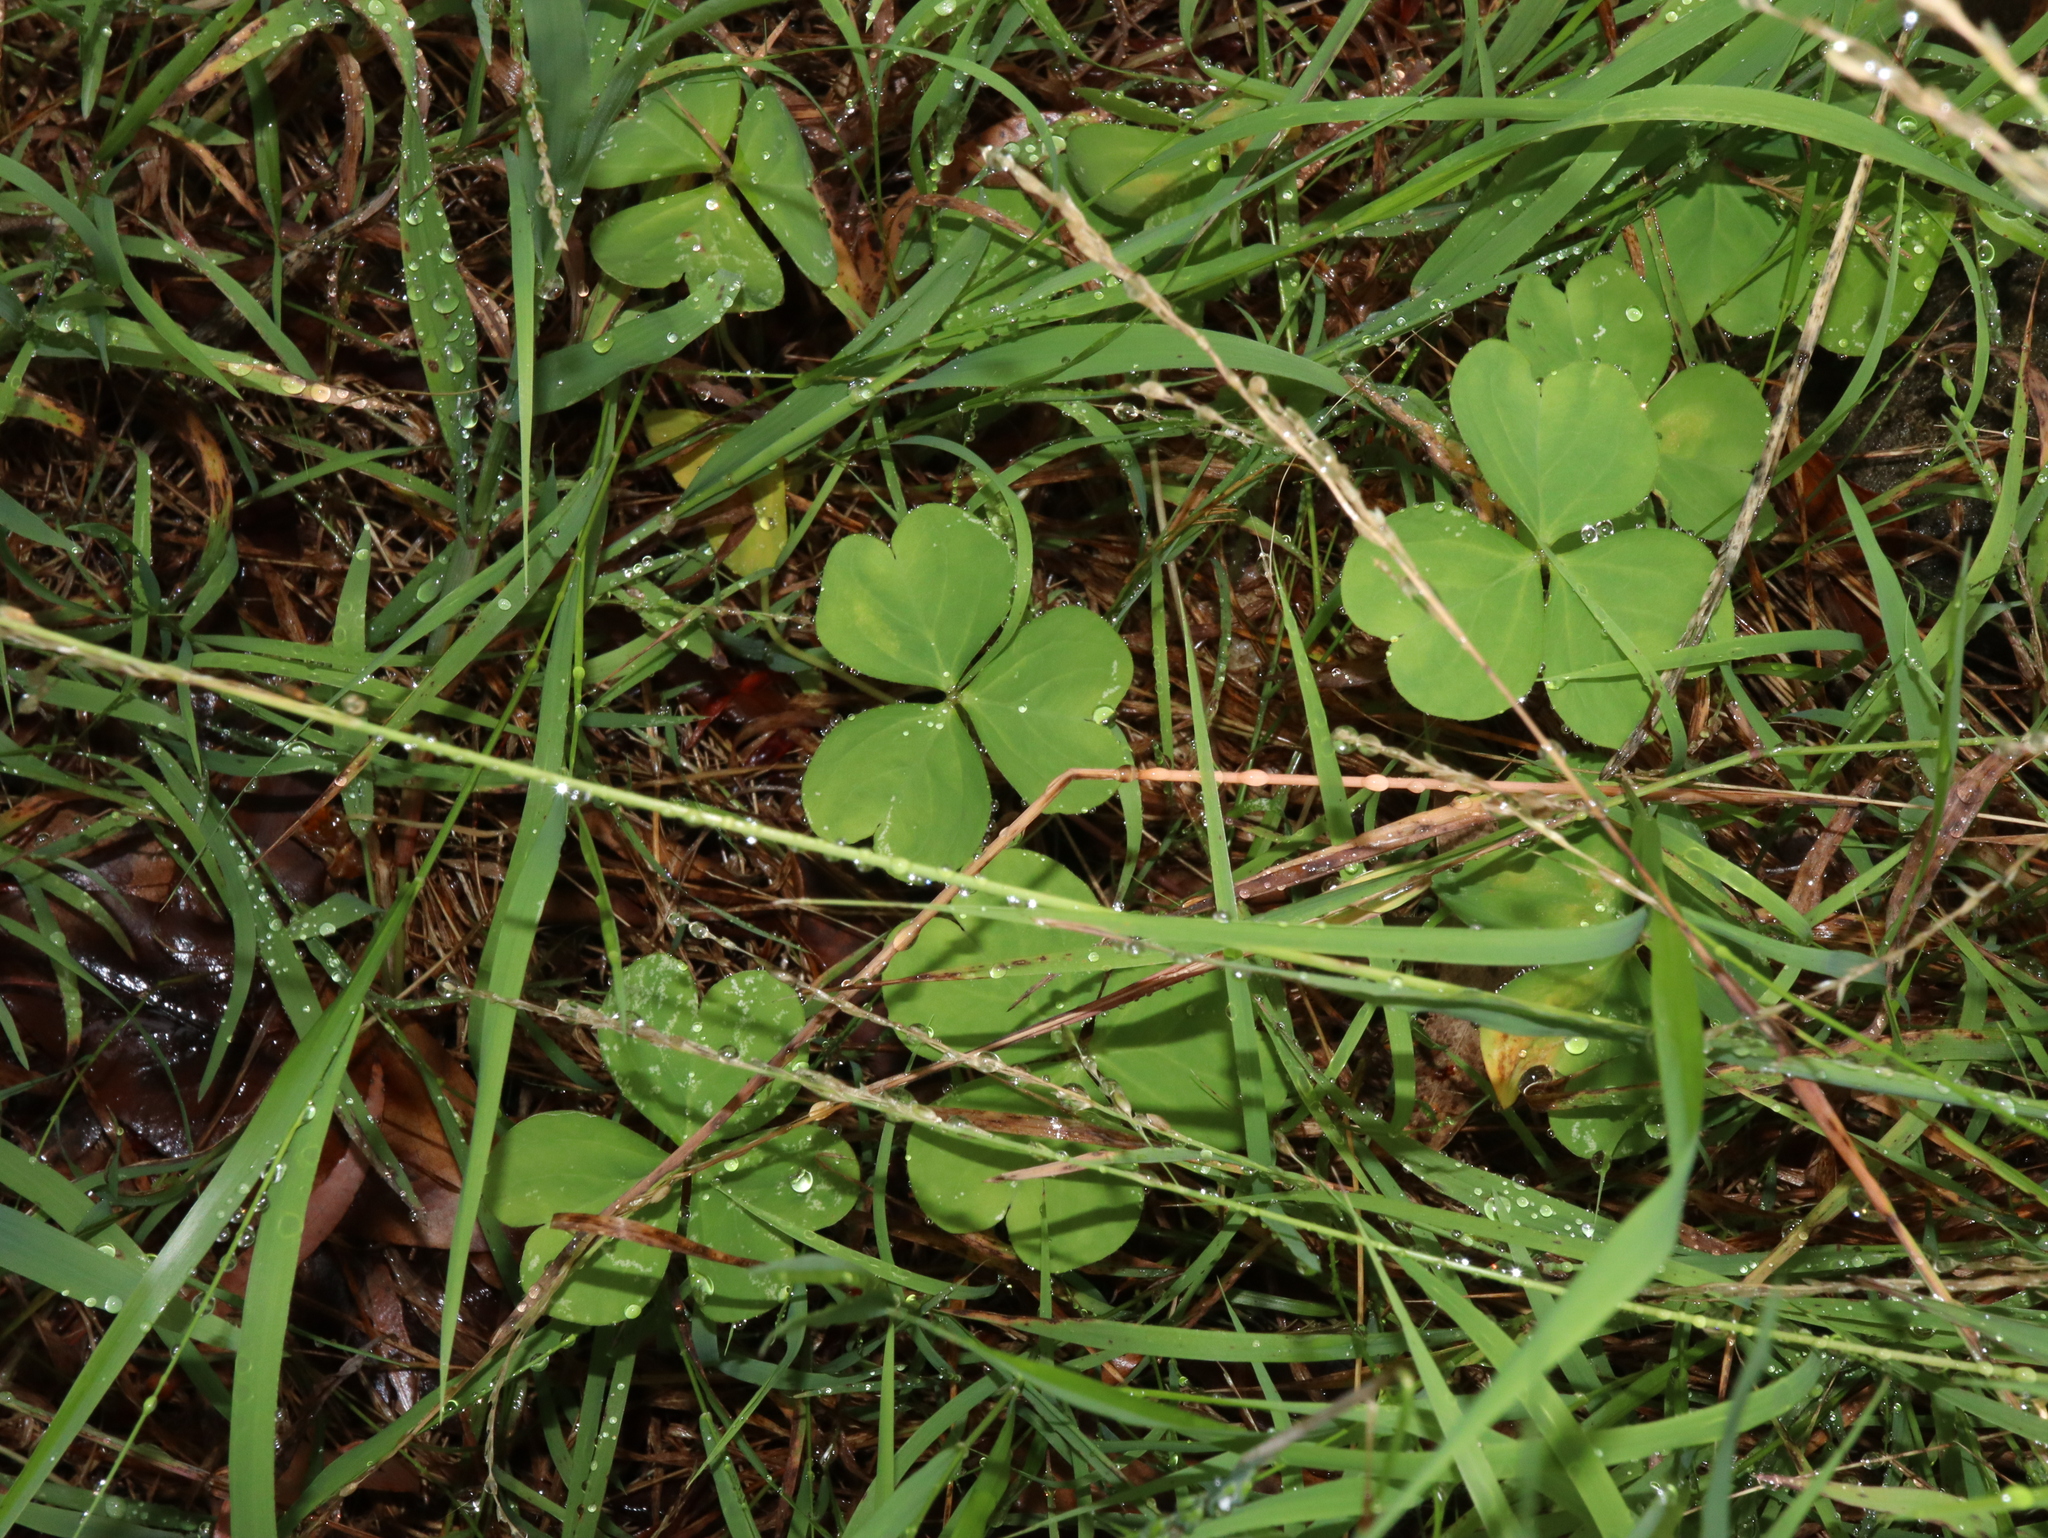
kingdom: Plantae
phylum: Tracheophyta
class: Magnoliopsida
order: Oxalidales
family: Oxalidaceae
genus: Oxalis
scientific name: Oxalis debilis
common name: Large-flowered pink-sorrel
